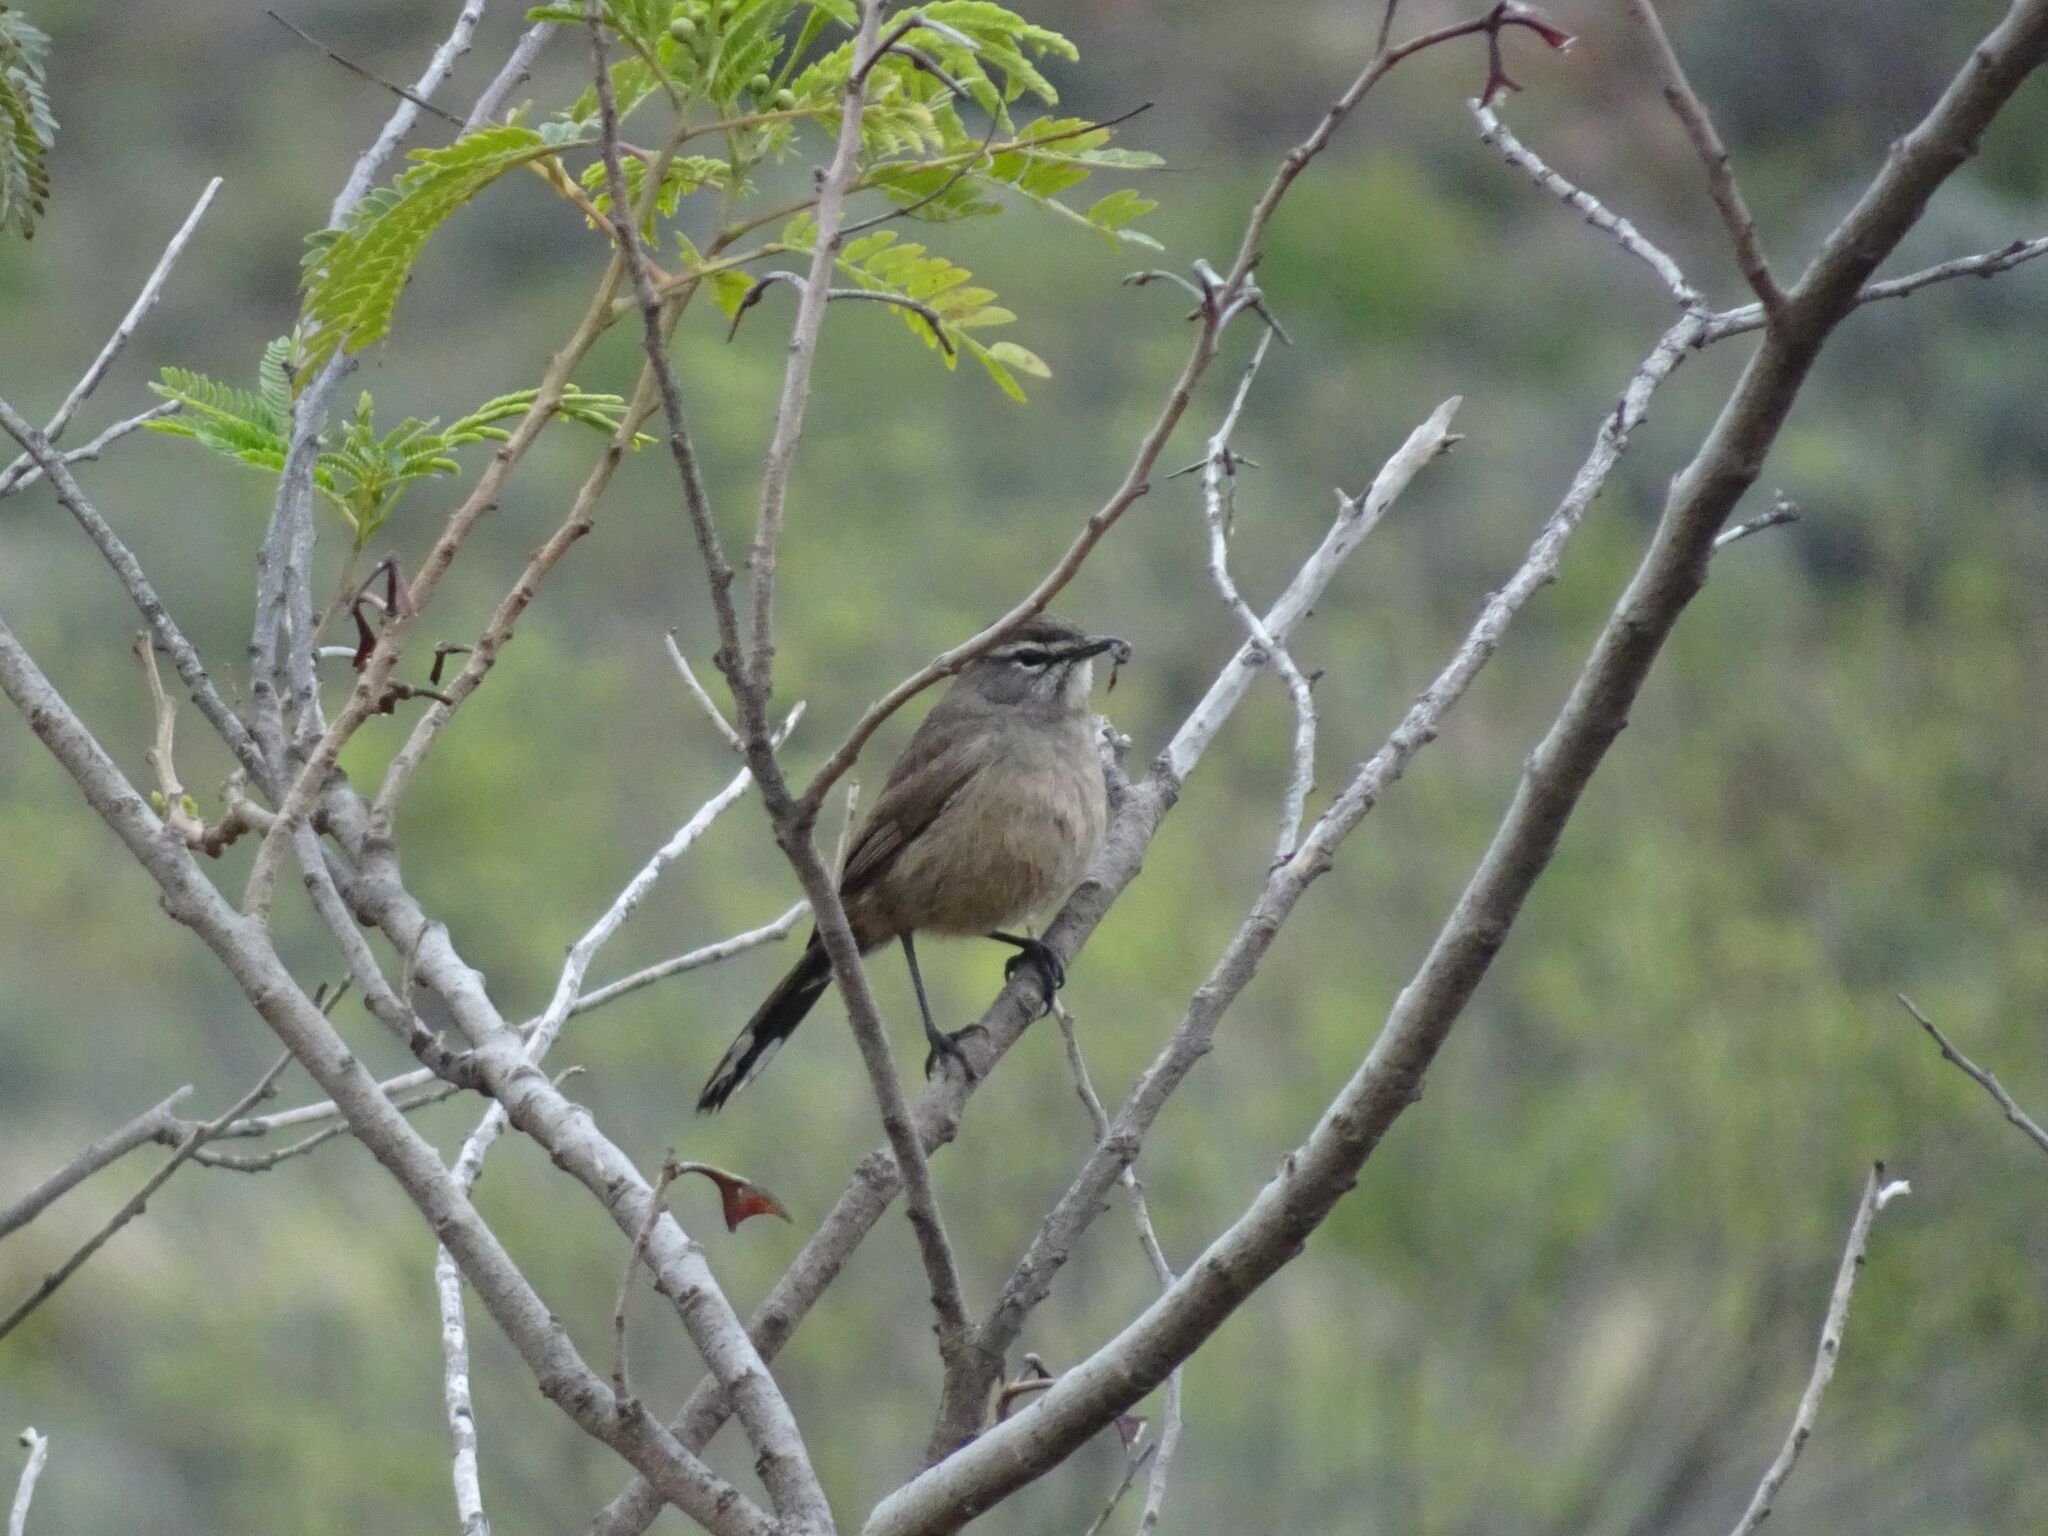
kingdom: Animalia
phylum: Chordata
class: Aves
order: Passeriformes
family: Muscicapidae
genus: Erythropygia
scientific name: Erythropygia coryphoeus
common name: Karoo scrub robin
